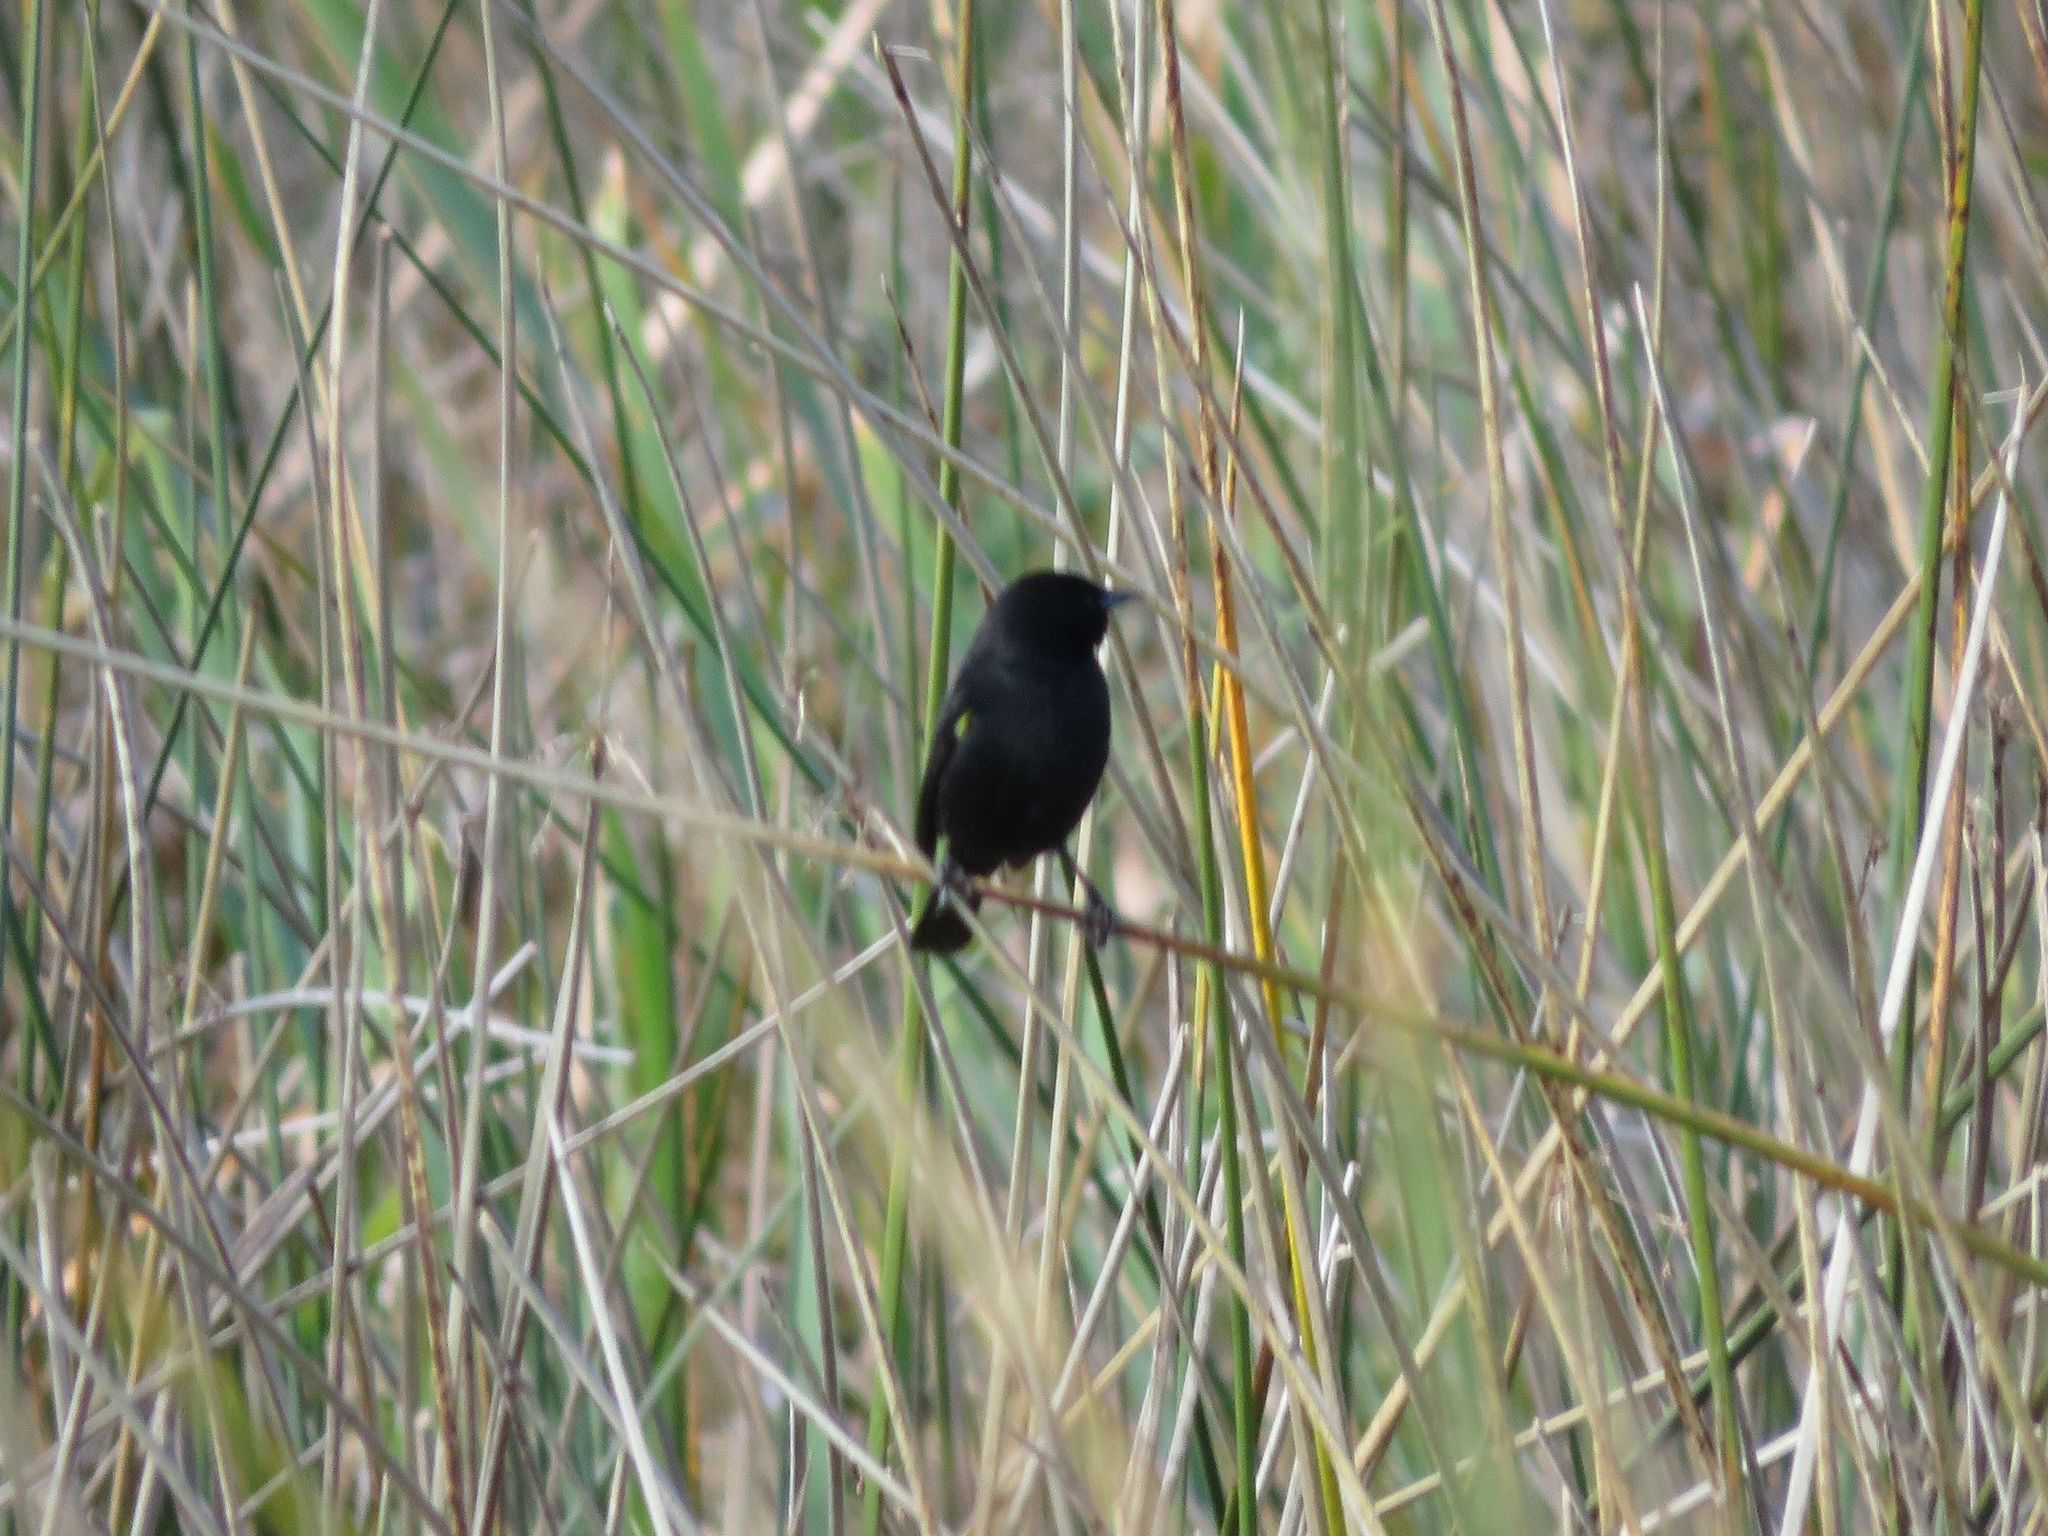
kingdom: Animalia
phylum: Chordata
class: Aves
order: Passeriformes
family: Icteridae
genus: Agelasticus
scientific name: Agelasticus thilius
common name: Yellow-winged blackbird
